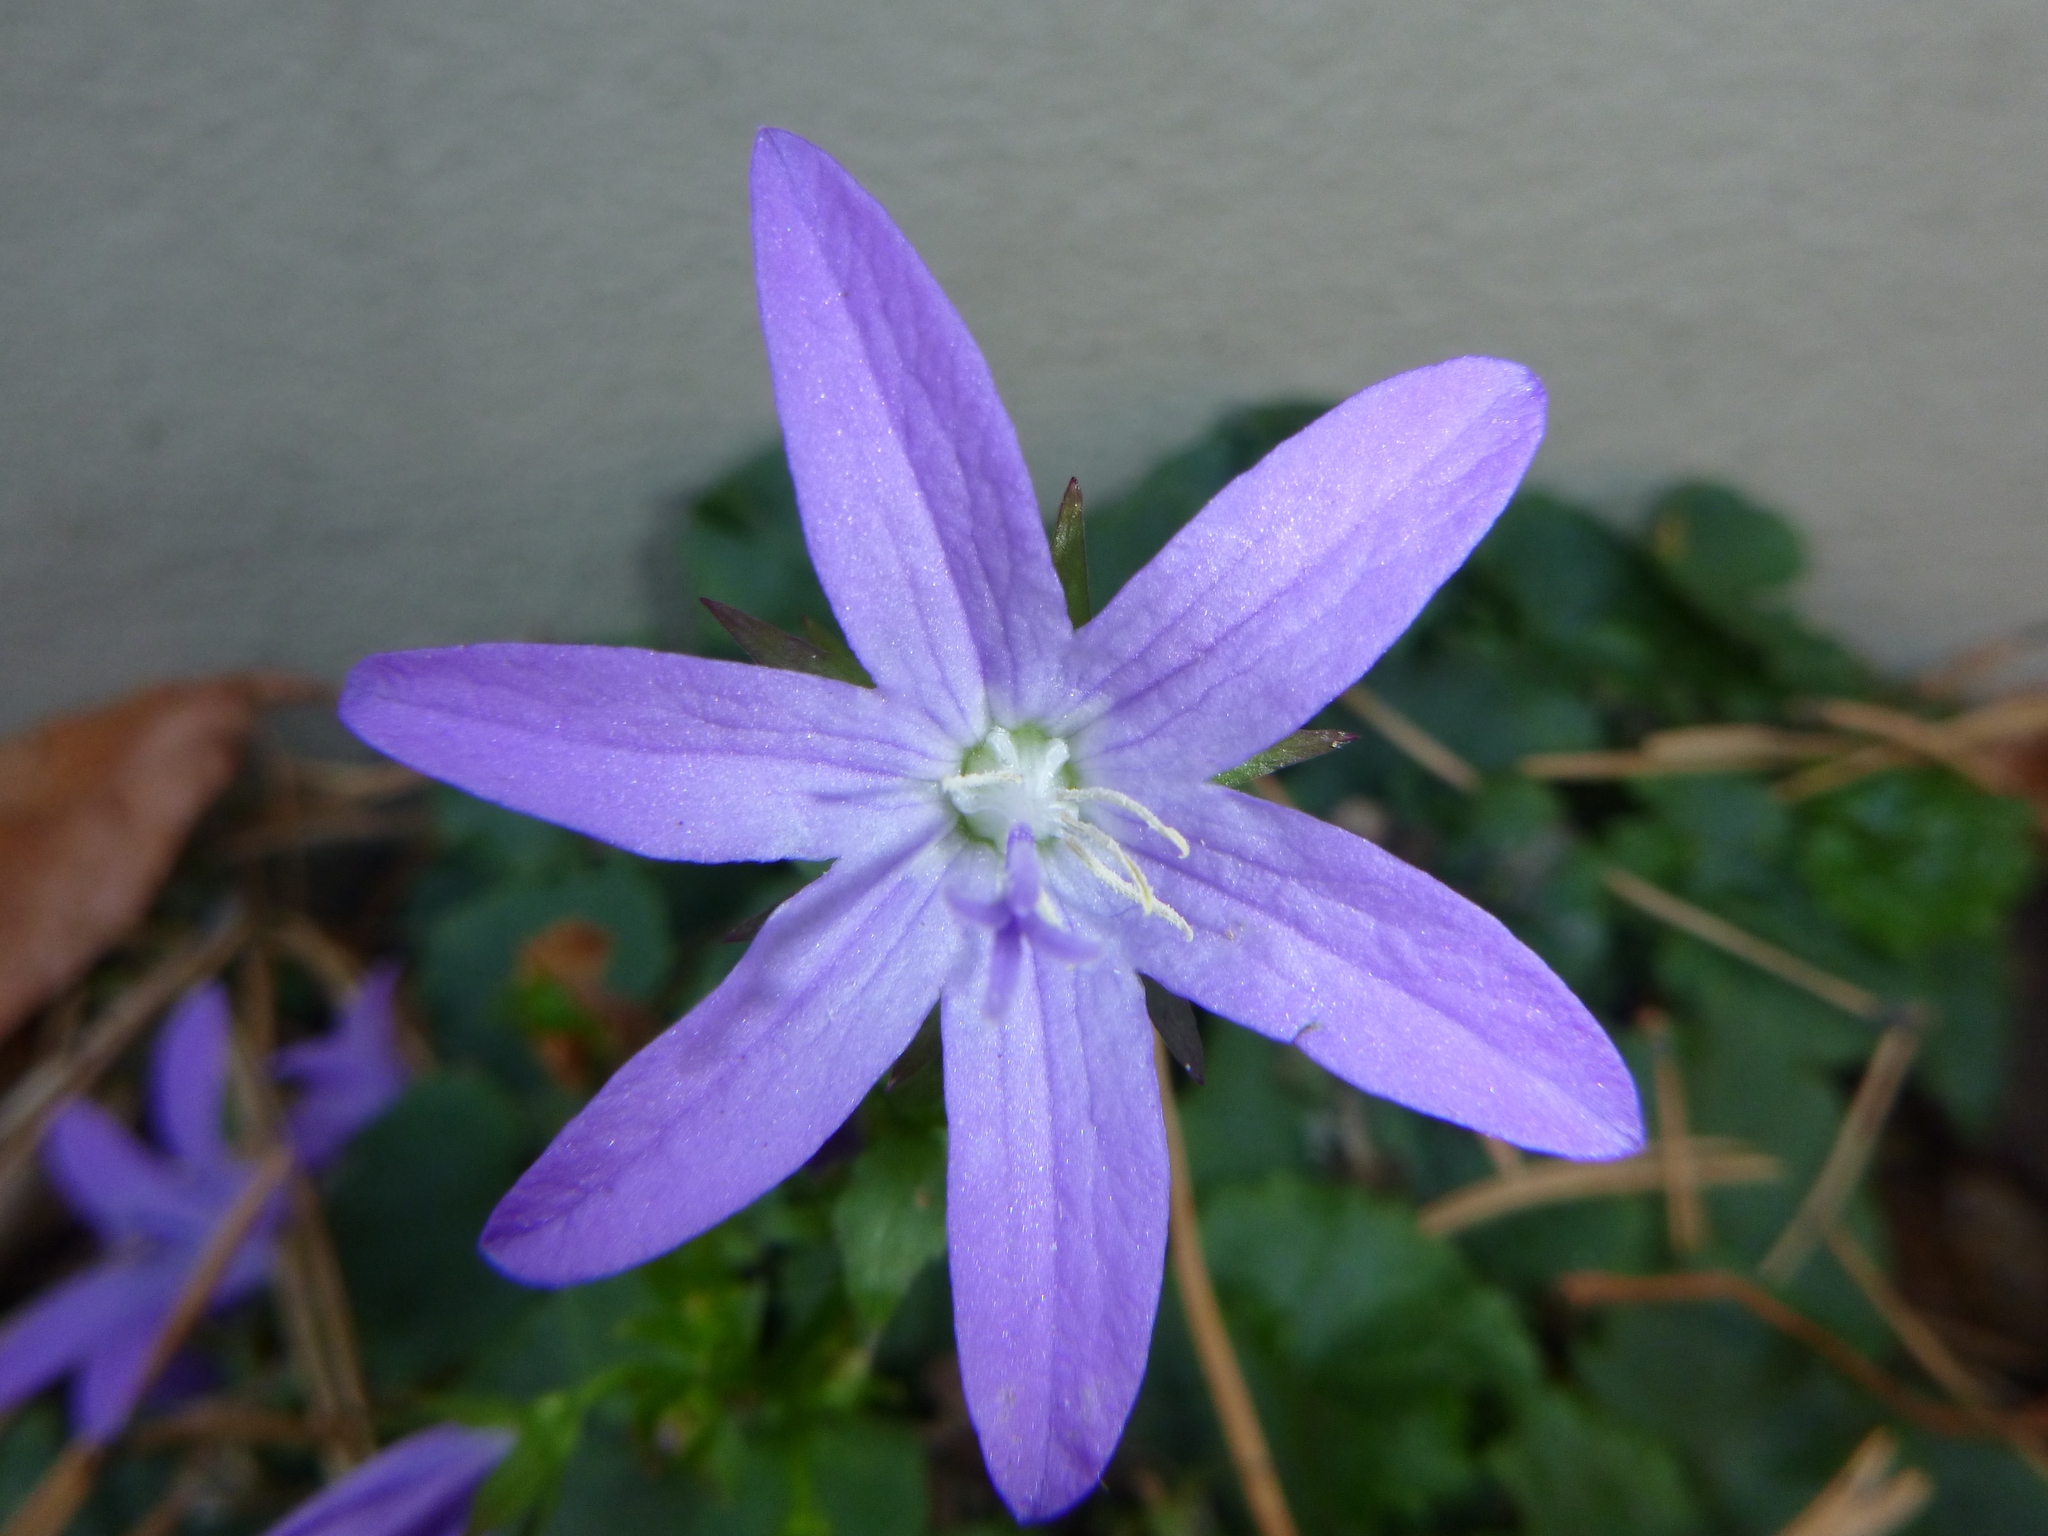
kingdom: Plantae
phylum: Tracheophyta
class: Magnoliopsida
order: Asterales
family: Campanulaceae
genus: Campanula
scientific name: Campanula poscharskyana
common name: Trailing bellflower
